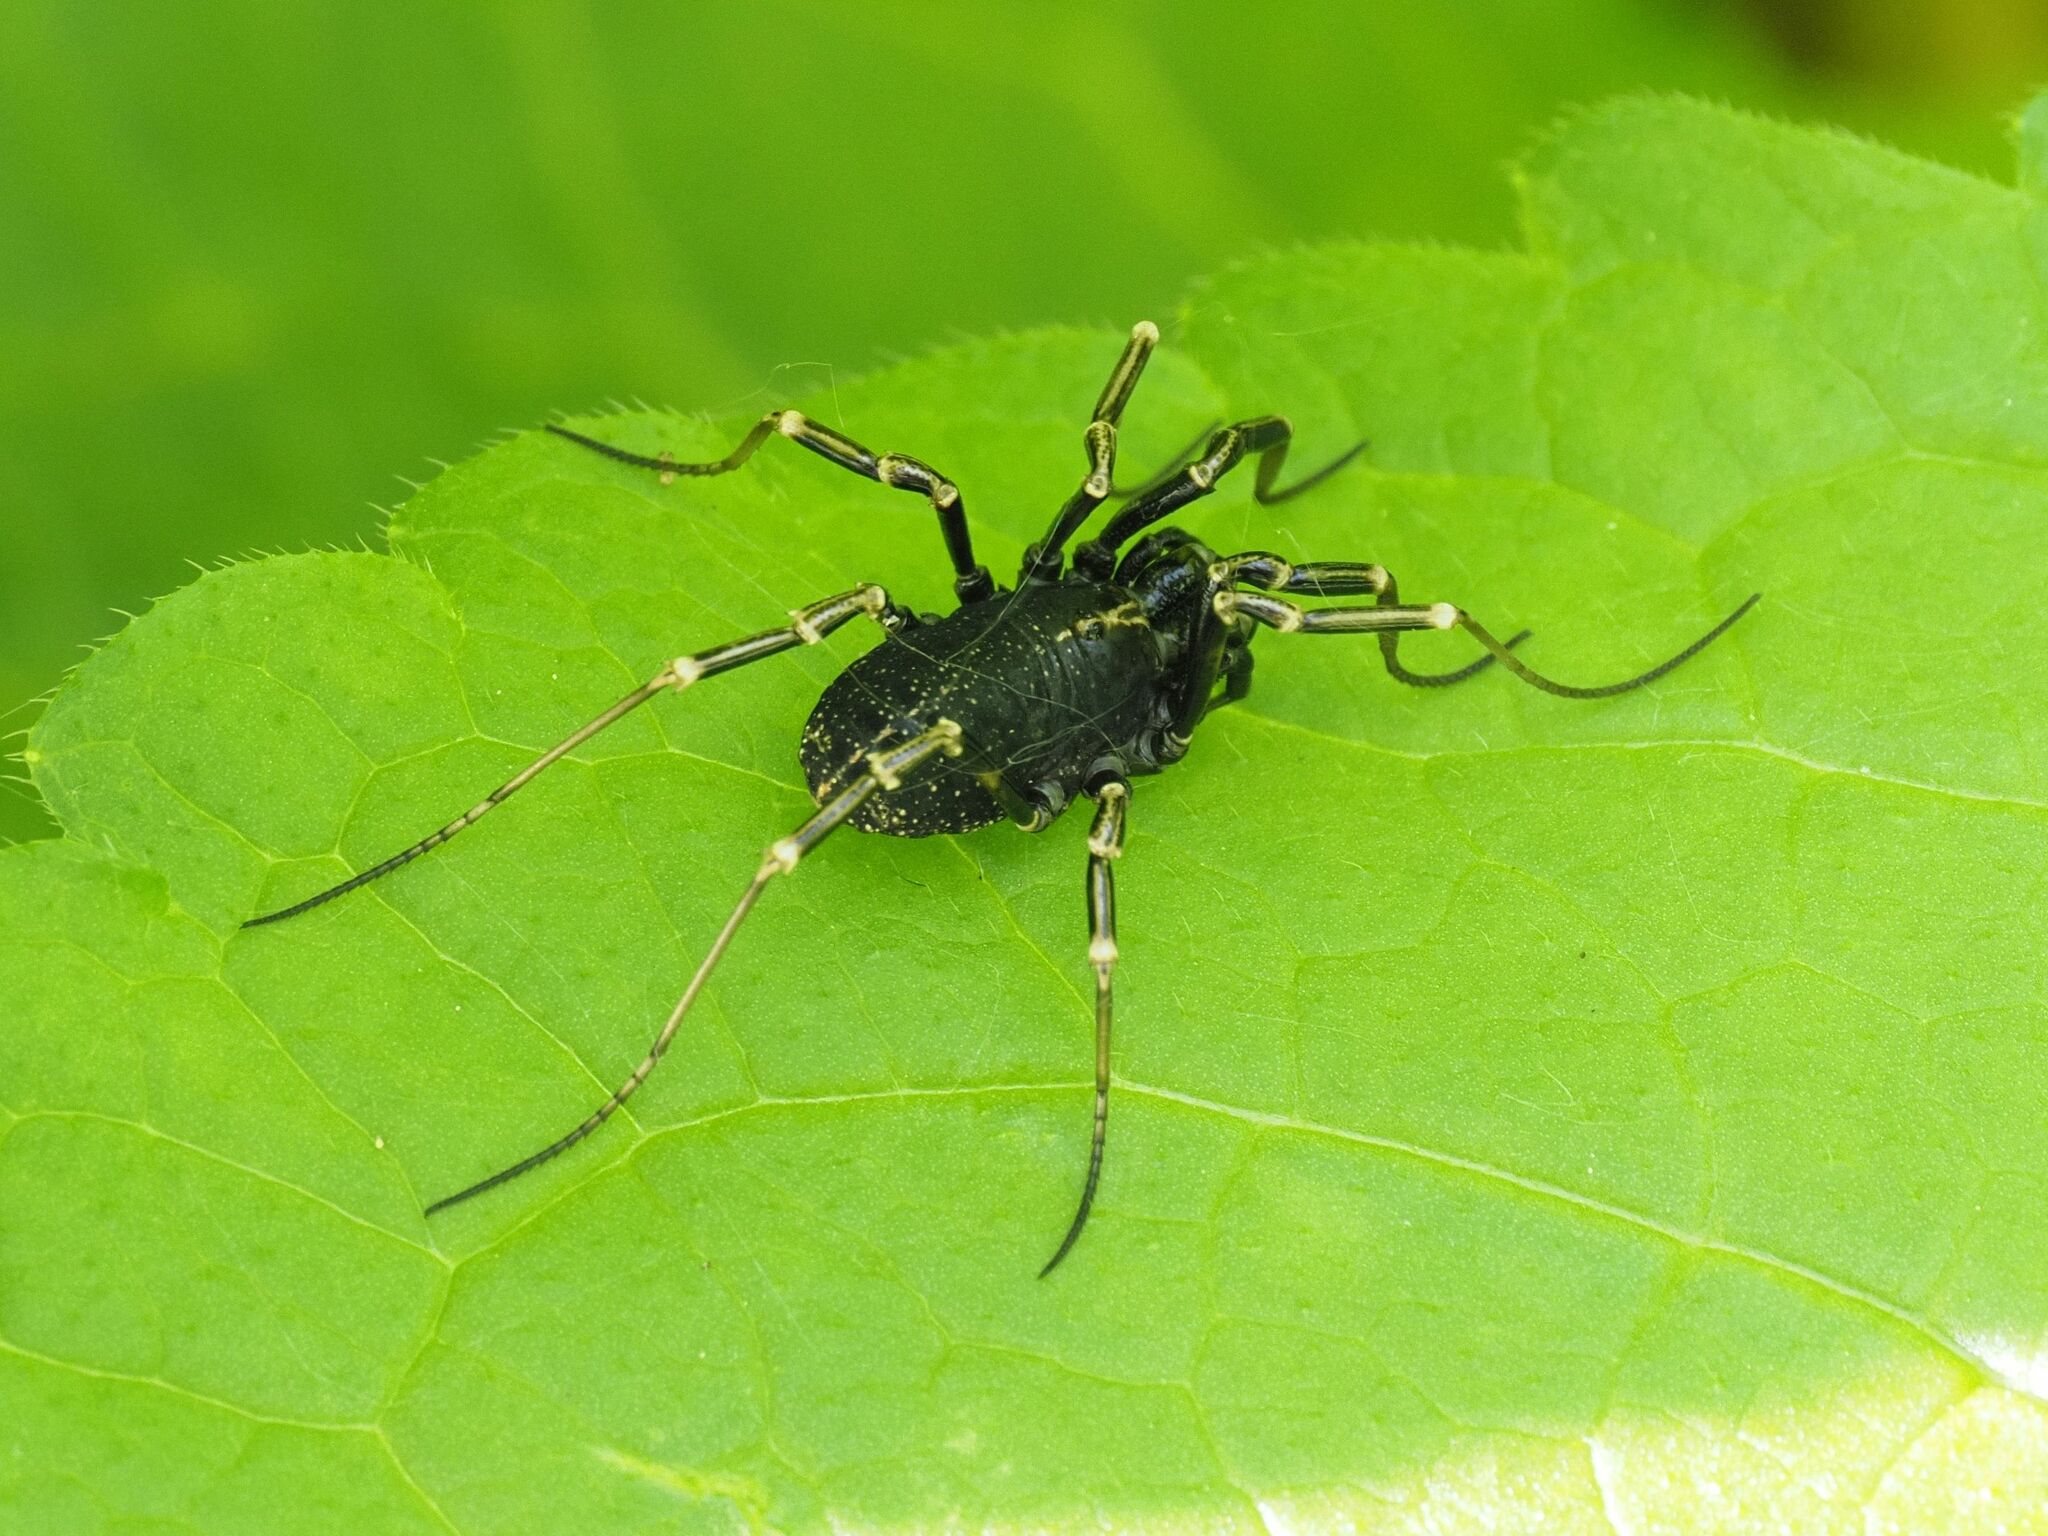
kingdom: Animalia
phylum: Arthropoda
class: Arachnida
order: Opiliones
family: Phalangiidae
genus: Egaenus
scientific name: Egaenus convexus
